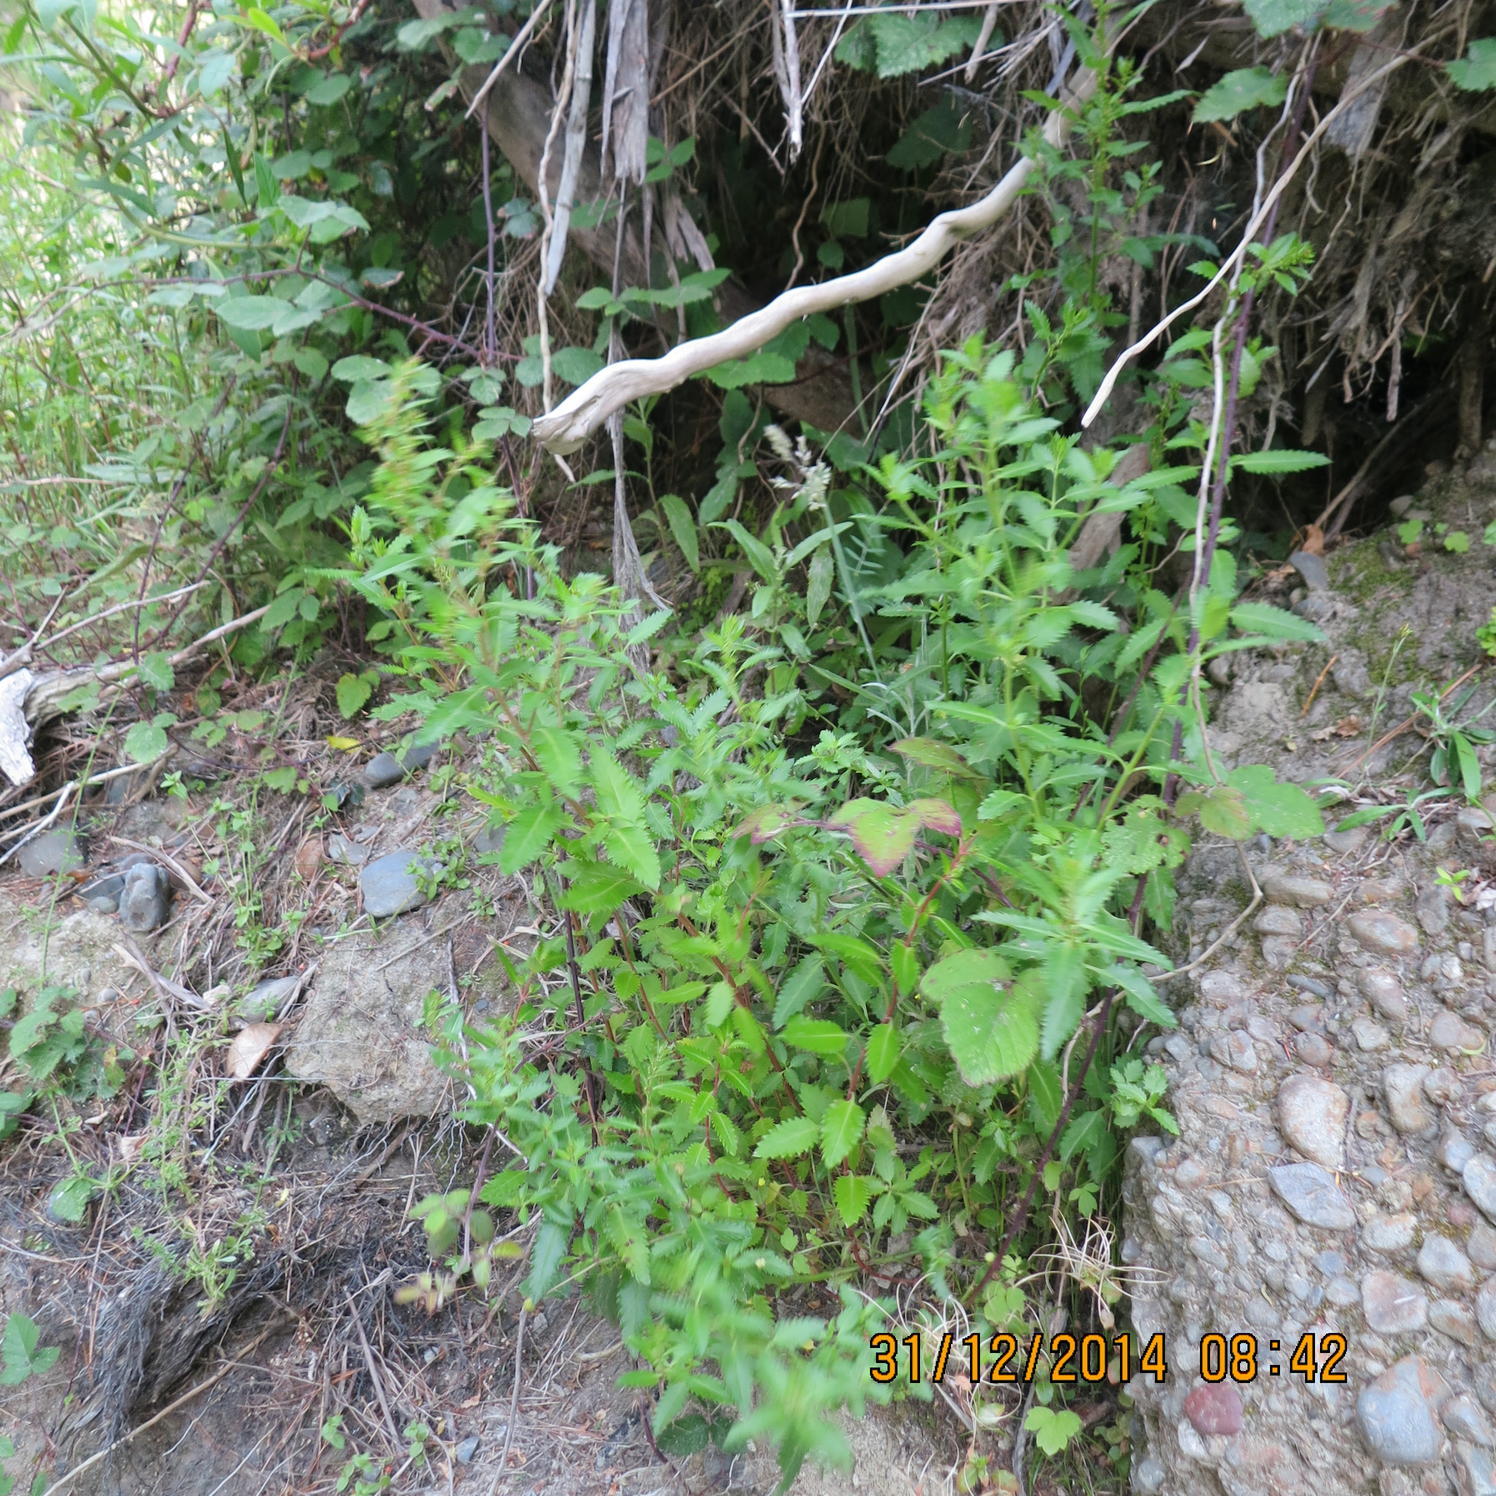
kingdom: Plantae
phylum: Tracheophyta
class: Magnoliopsida
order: Saxifragales
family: Haloragaceae
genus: Haloragis
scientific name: Haloragis erecta
